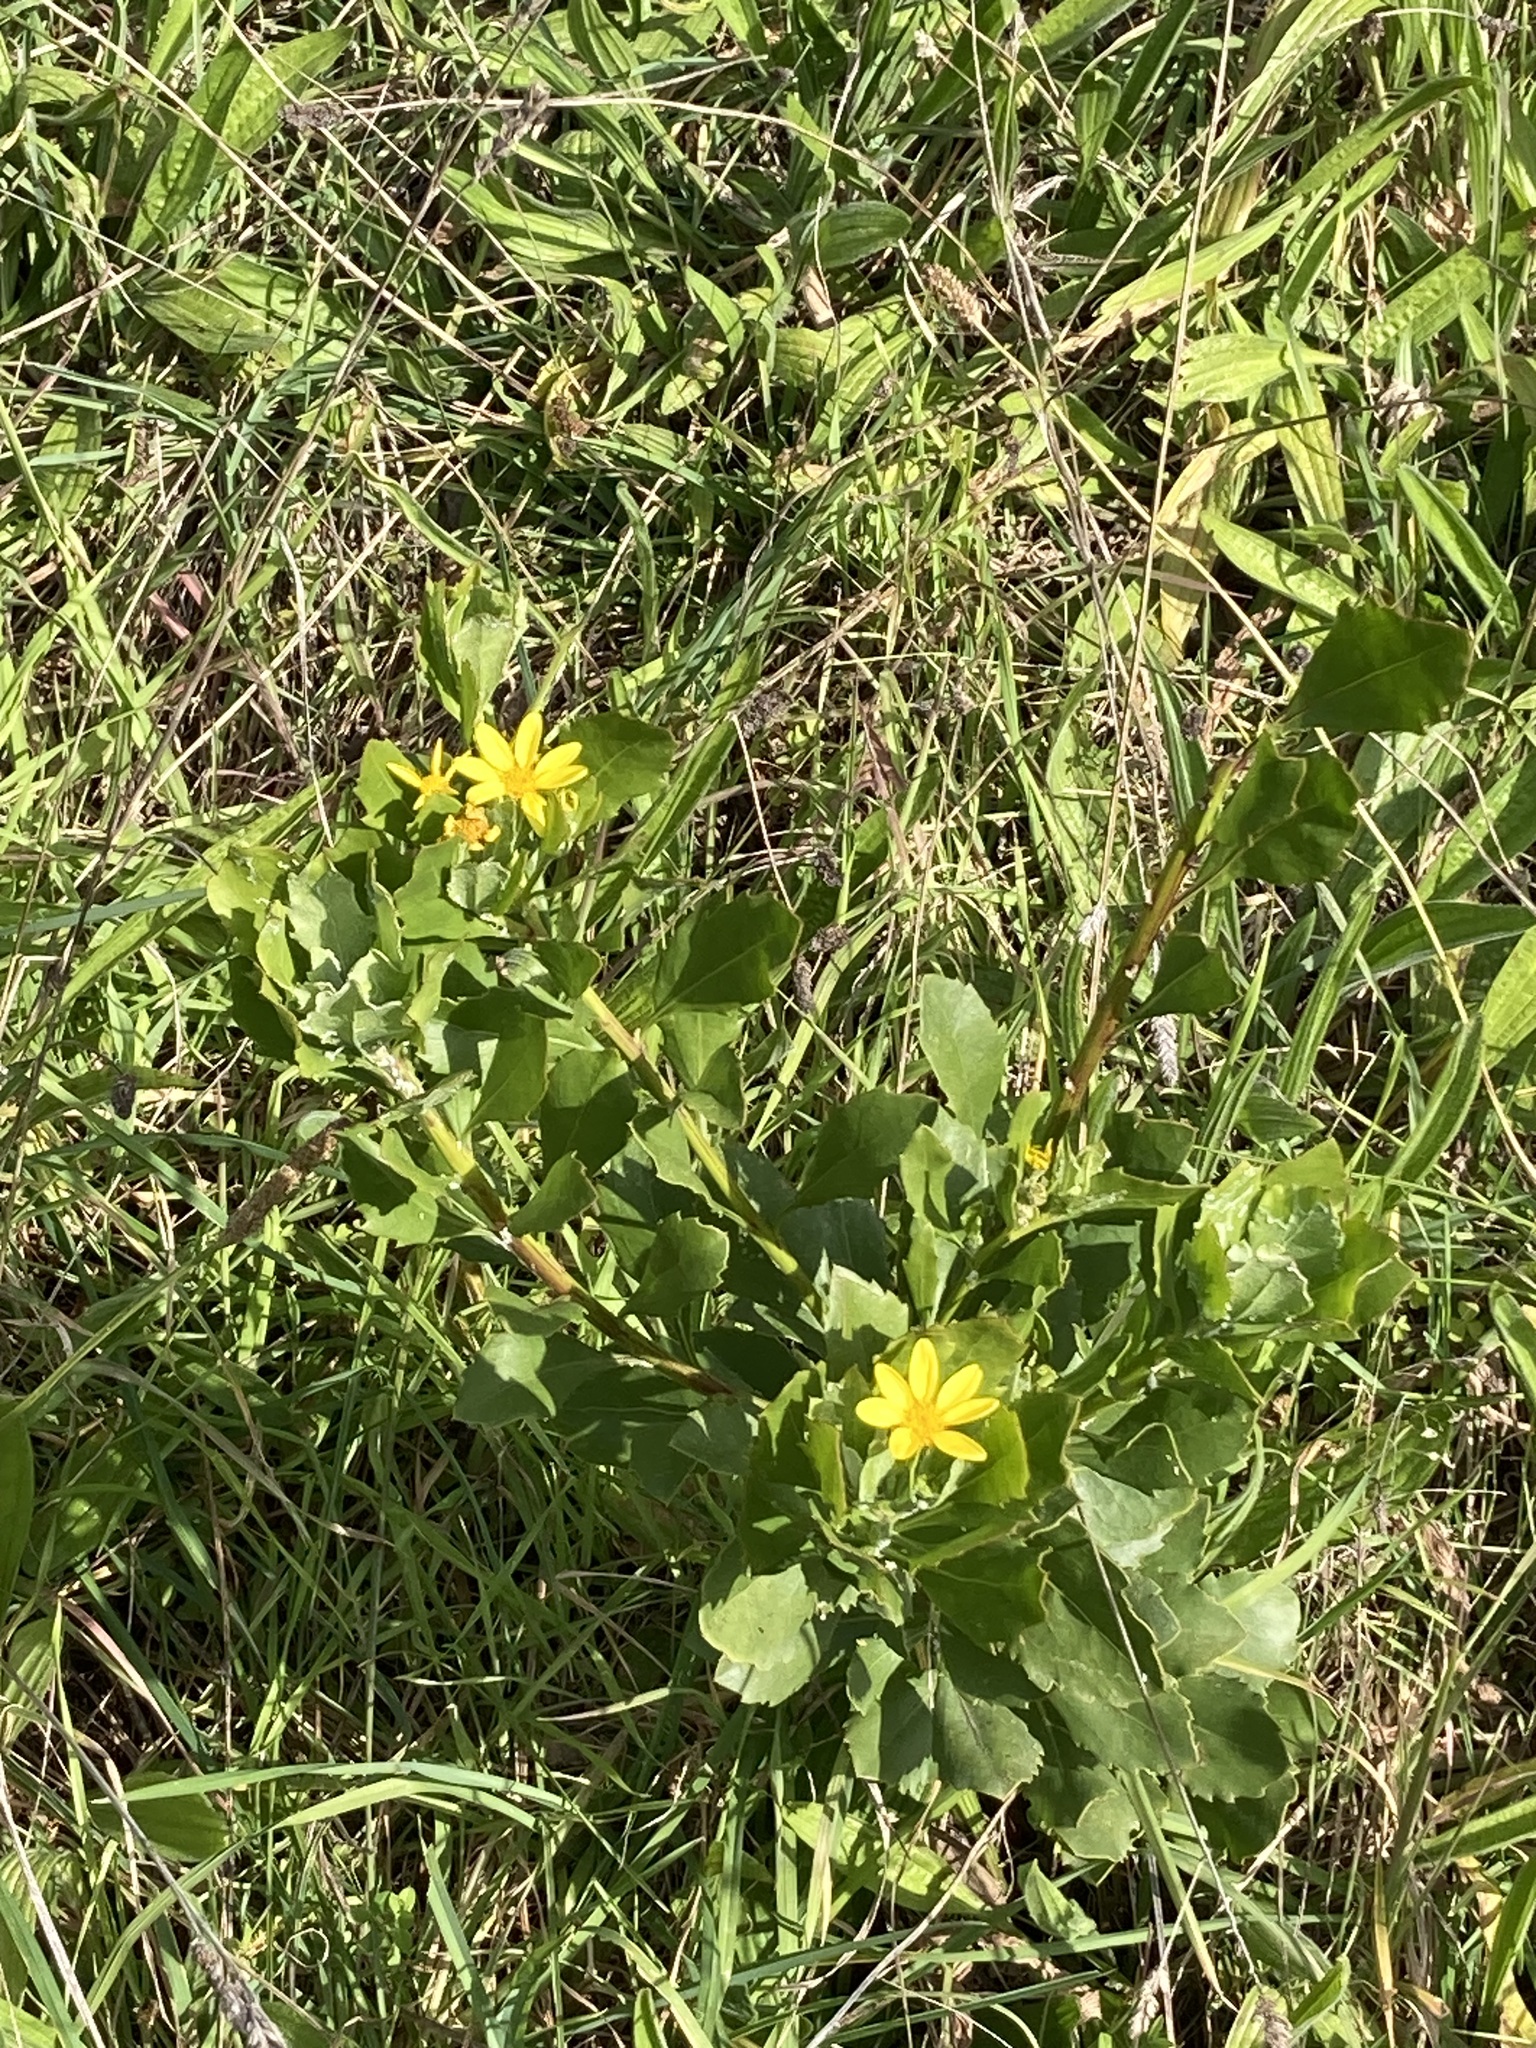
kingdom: Plantae
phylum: Tracheophyta
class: Magnoliopsida
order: Asterales
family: Asteraceae
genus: Osteospermum
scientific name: Osteospermum moniliferum
